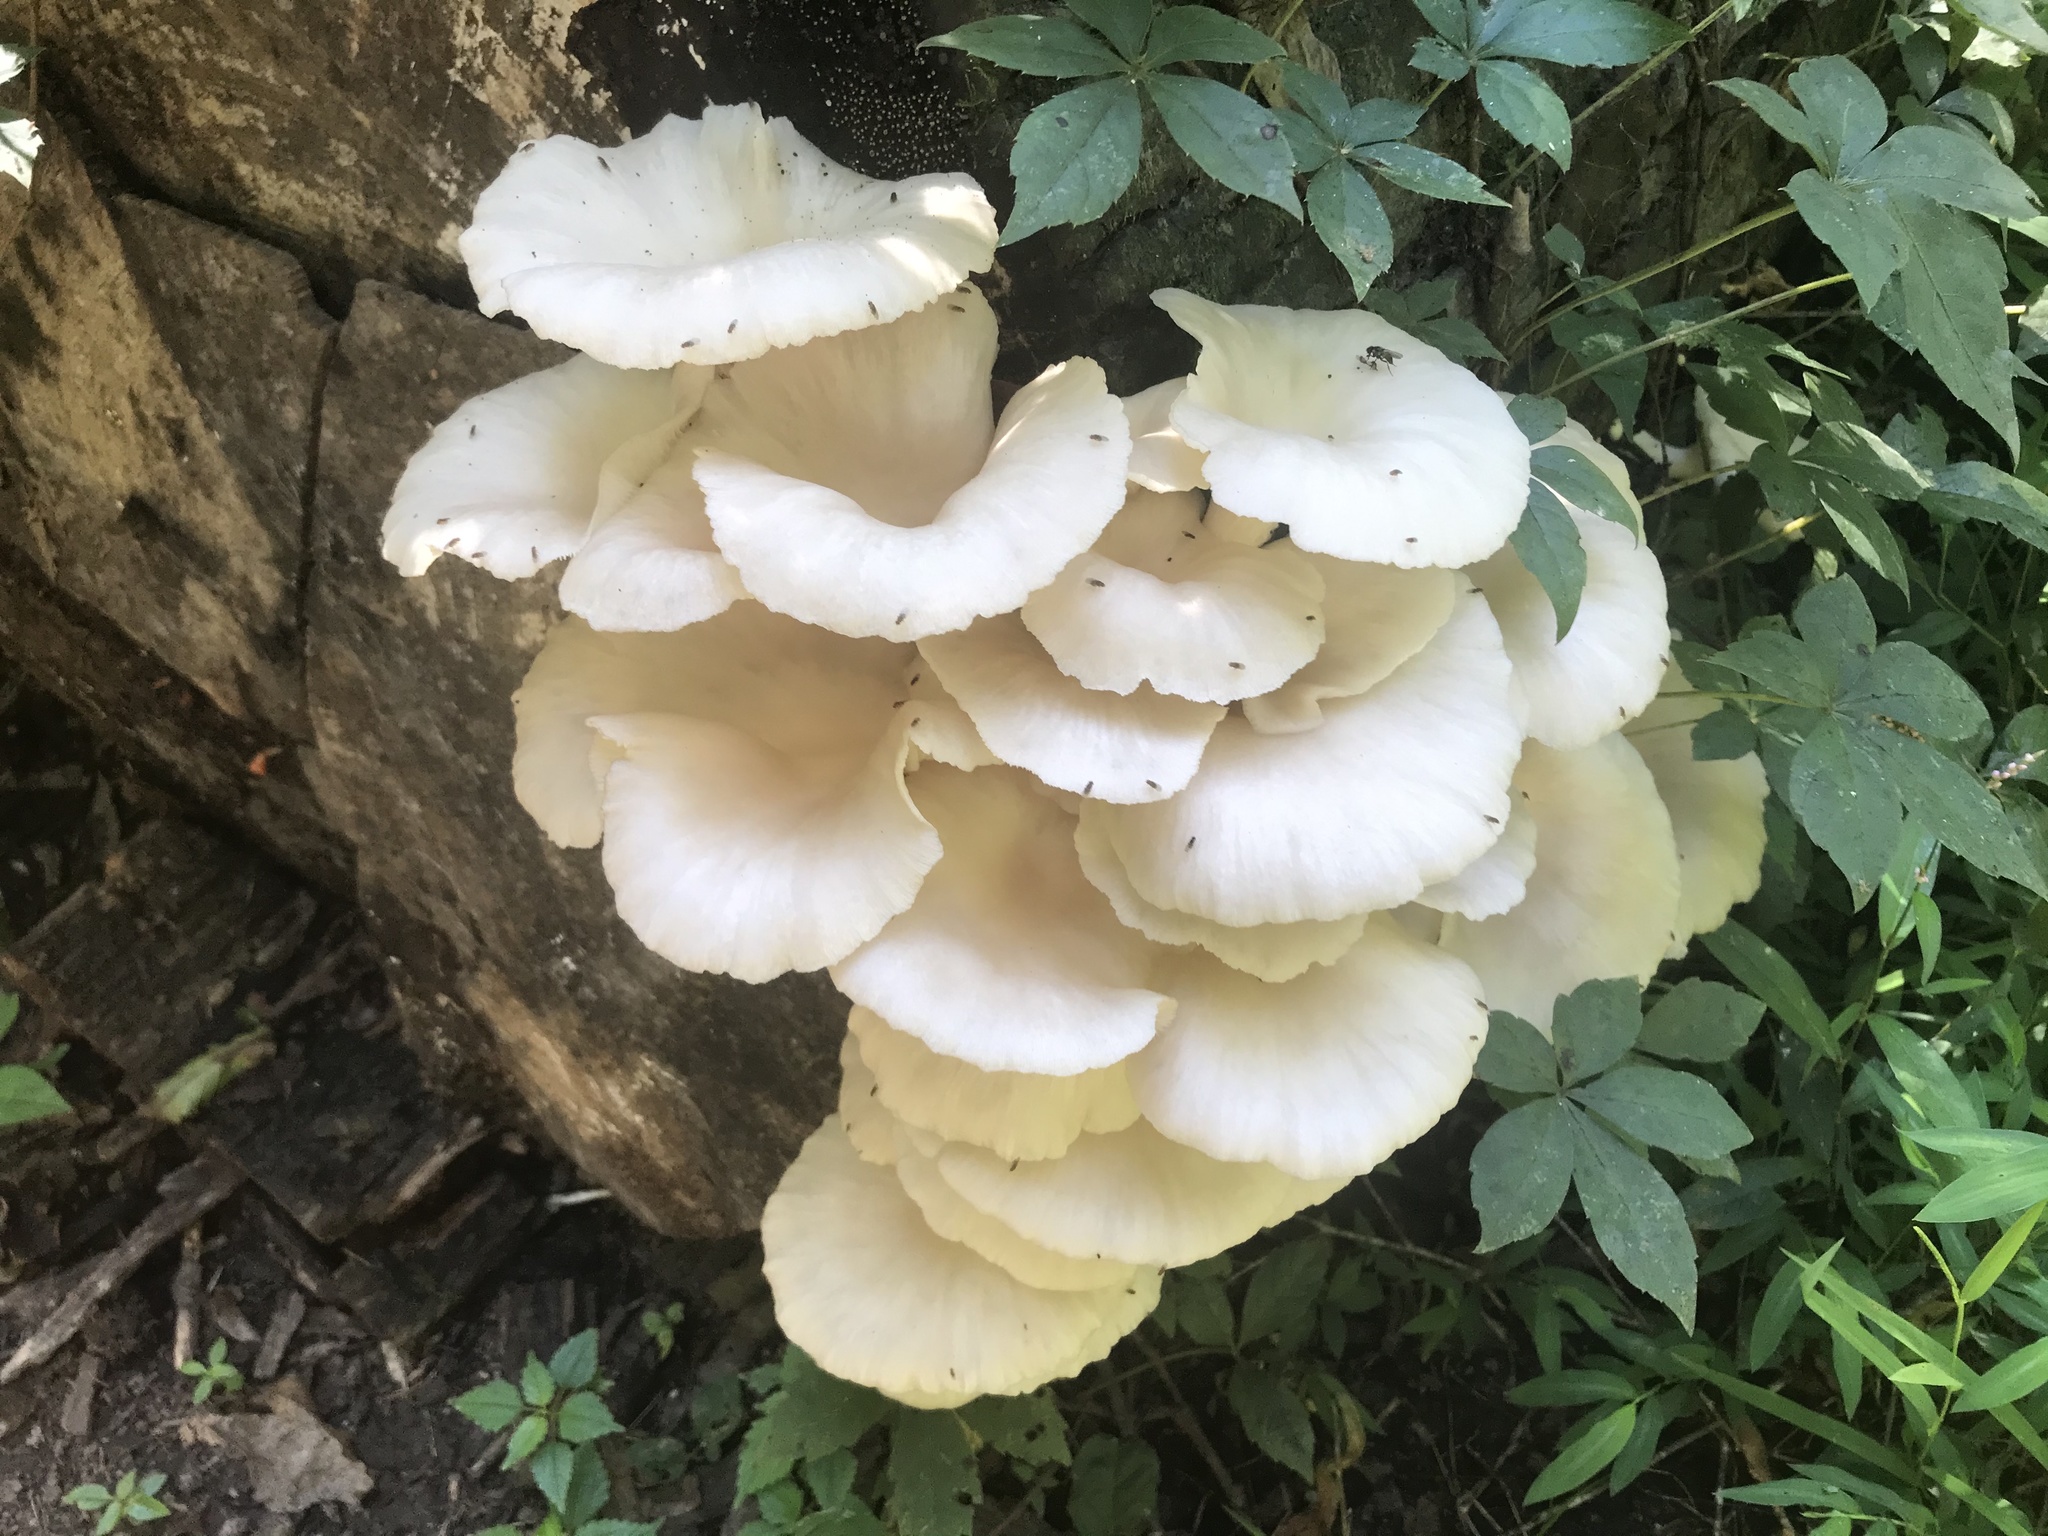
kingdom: Fungi
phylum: Basidiomycota
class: Agaricomycetes
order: Agaricales
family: Pleurotaceae
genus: Pleurotus
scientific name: Pleurotus pulmonarius
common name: Pale oyster
